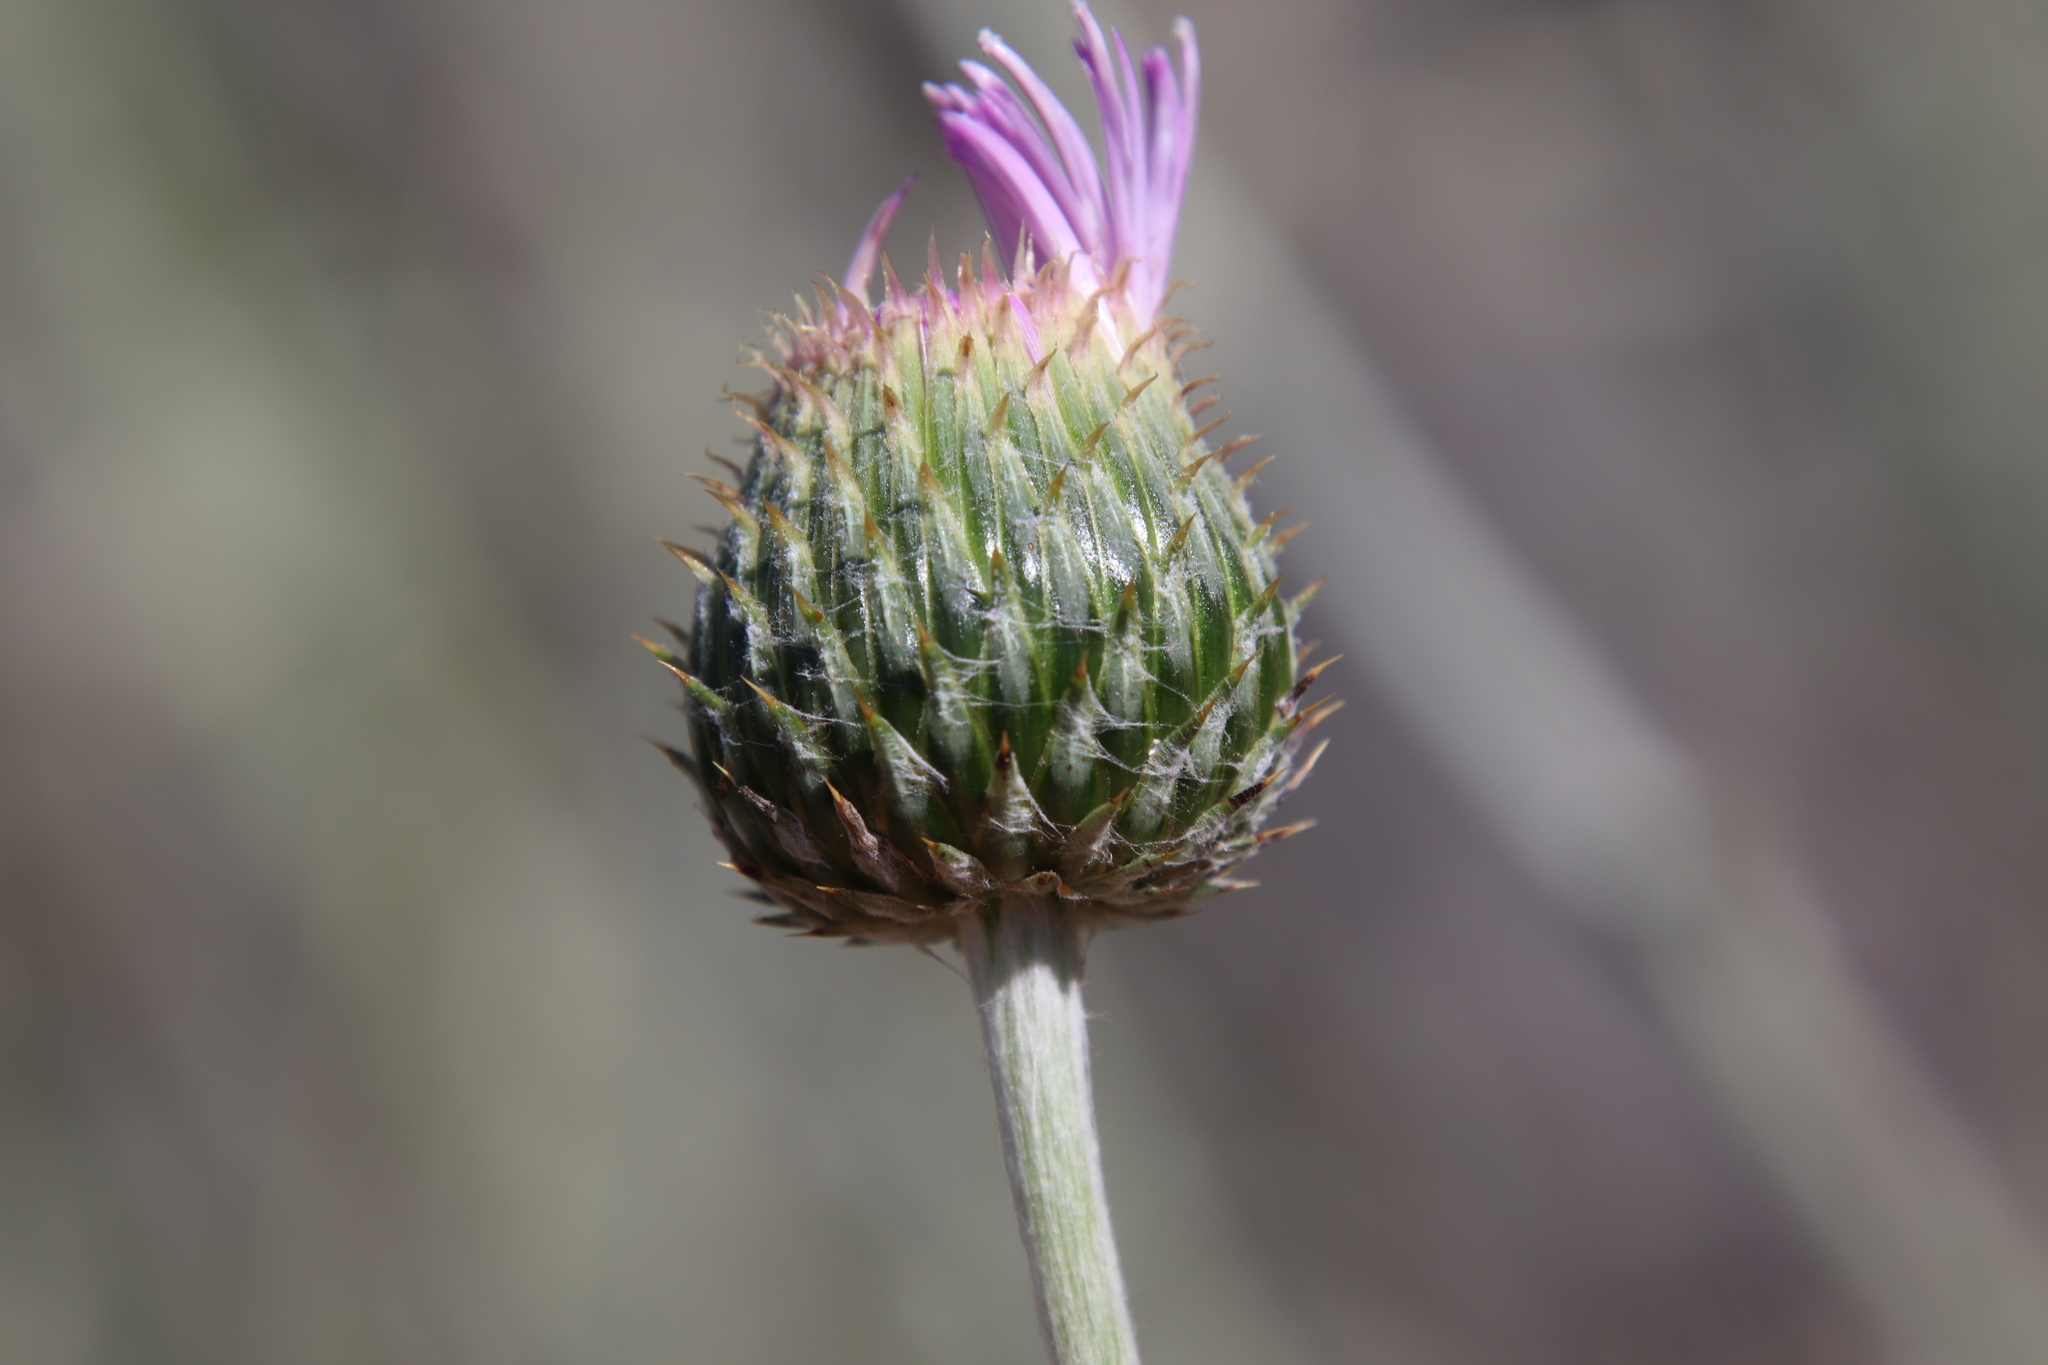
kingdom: Plantae
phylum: Tracheophyta
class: Magnoliopsida
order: Asterales
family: Asteraceae
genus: Cirsium
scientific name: Cirsium occidentale
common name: Western thistle
